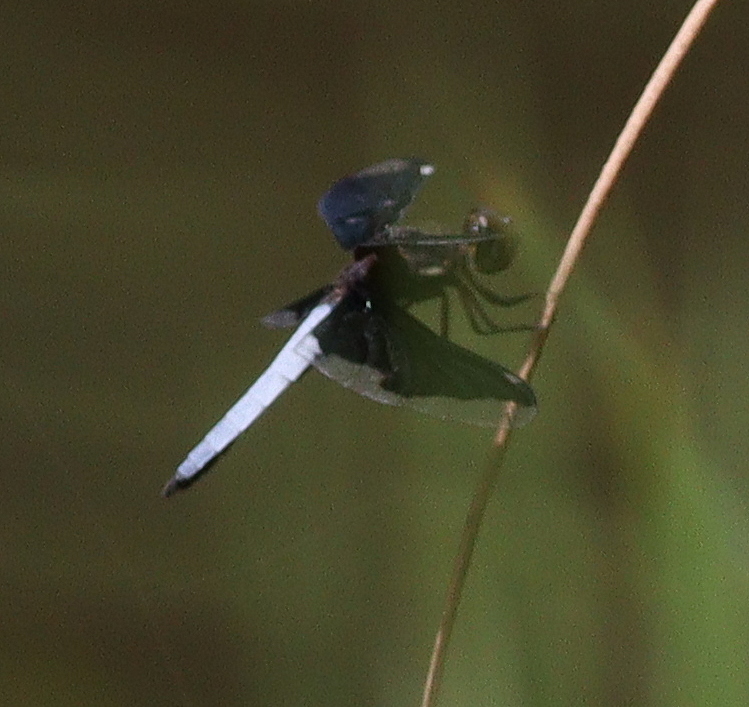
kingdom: Animalia
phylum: Arthropoda
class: Insecta
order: Odonata
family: Libellulidae
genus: Palpopleura
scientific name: Palpopleura lucia
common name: Lucia widow
